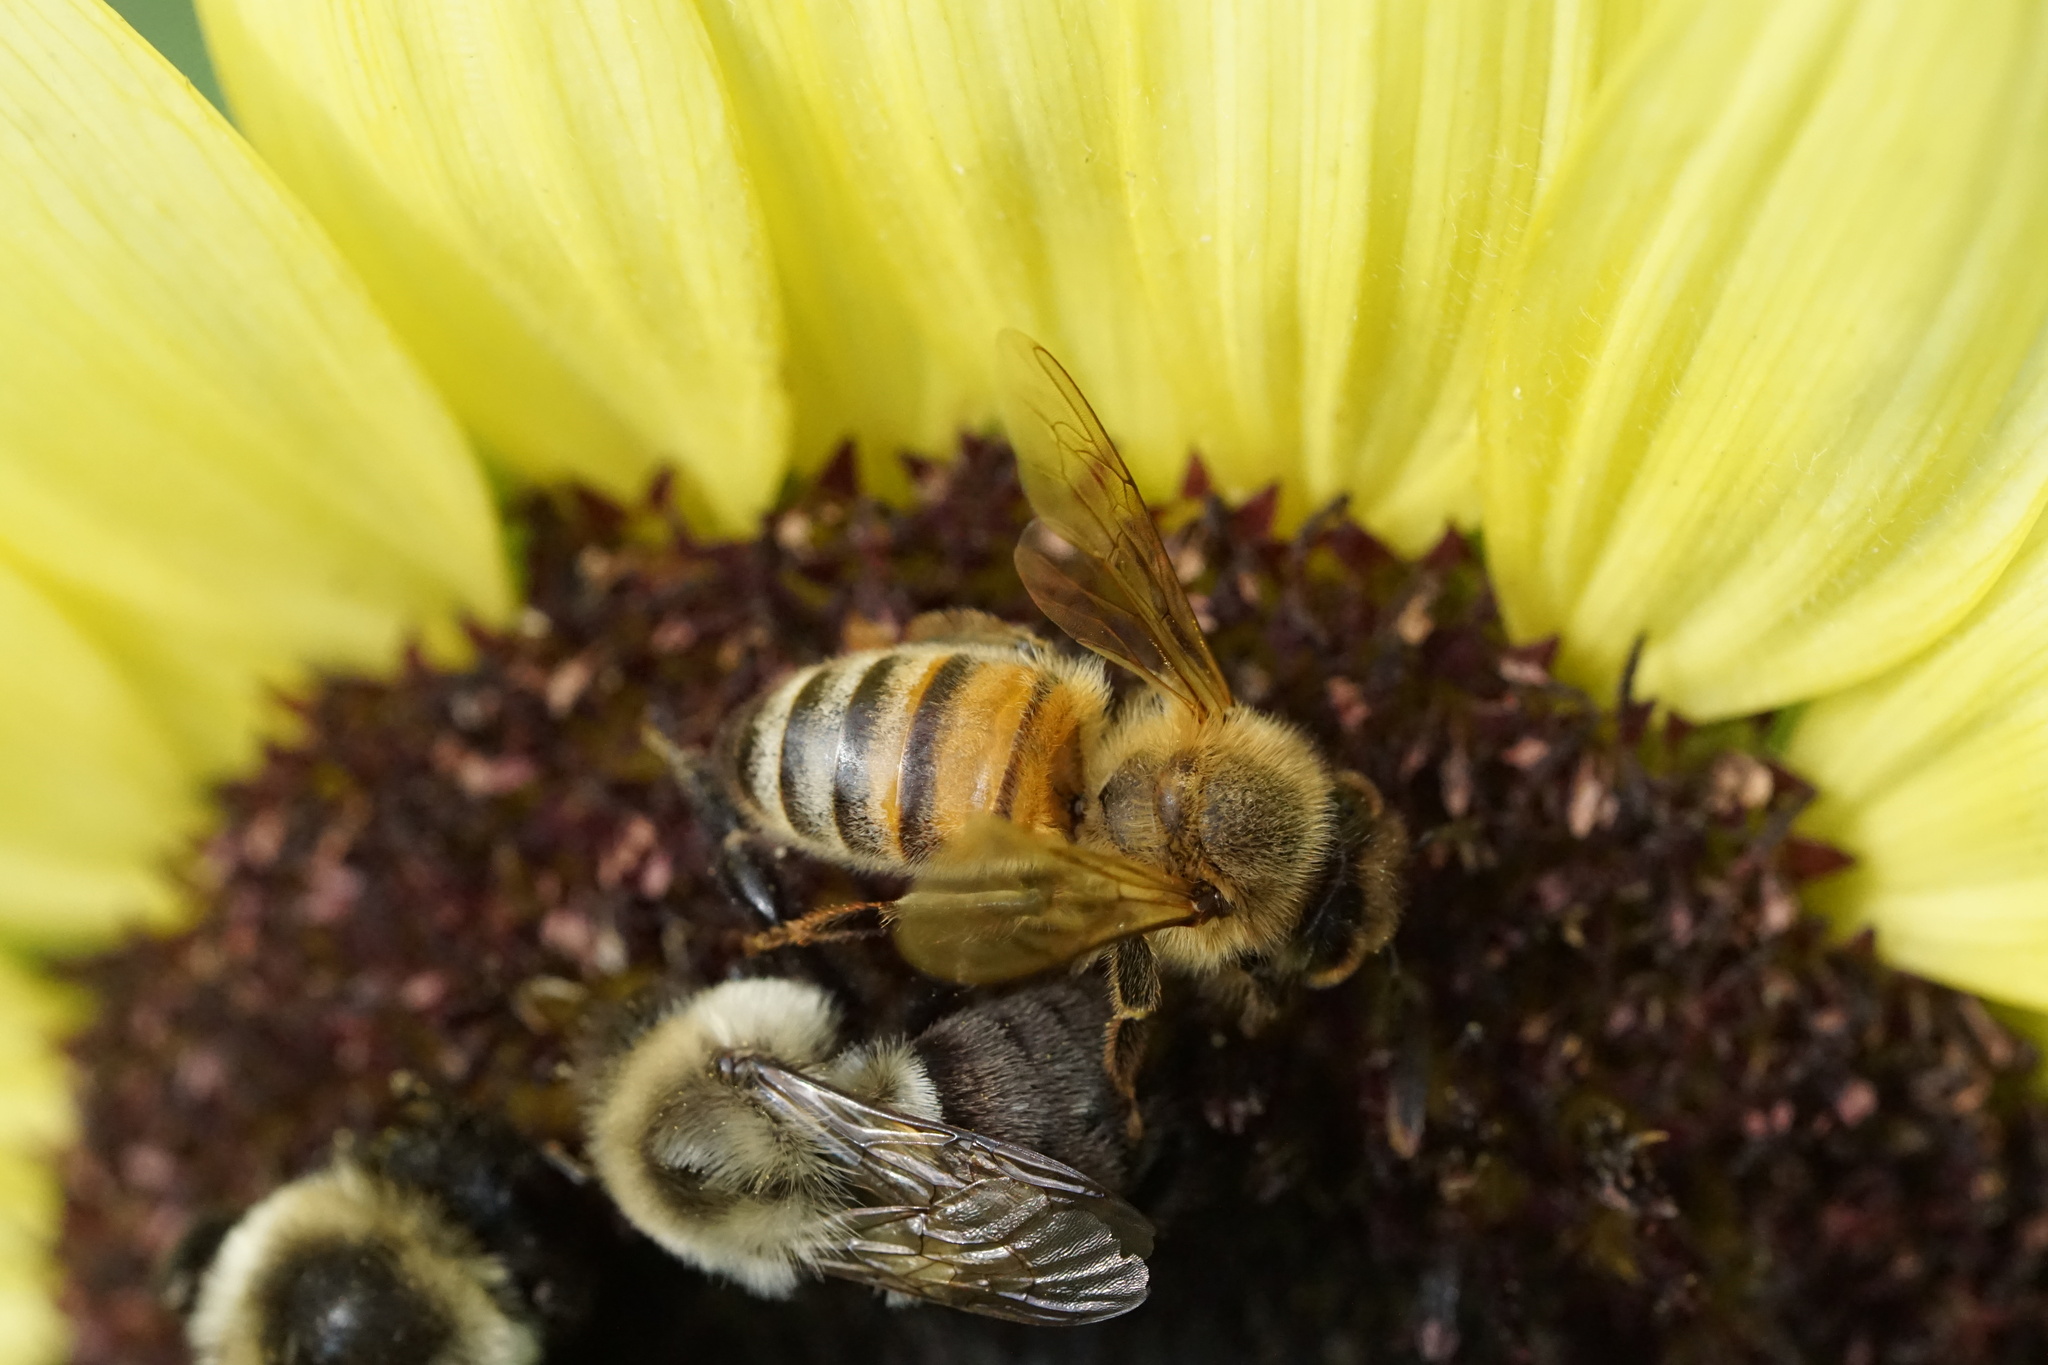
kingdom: Animalia
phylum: Arthropoda
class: Insecta
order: Hymenoptera
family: Apidae
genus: Apis
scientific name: Apis mellifera
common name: Honey bee
